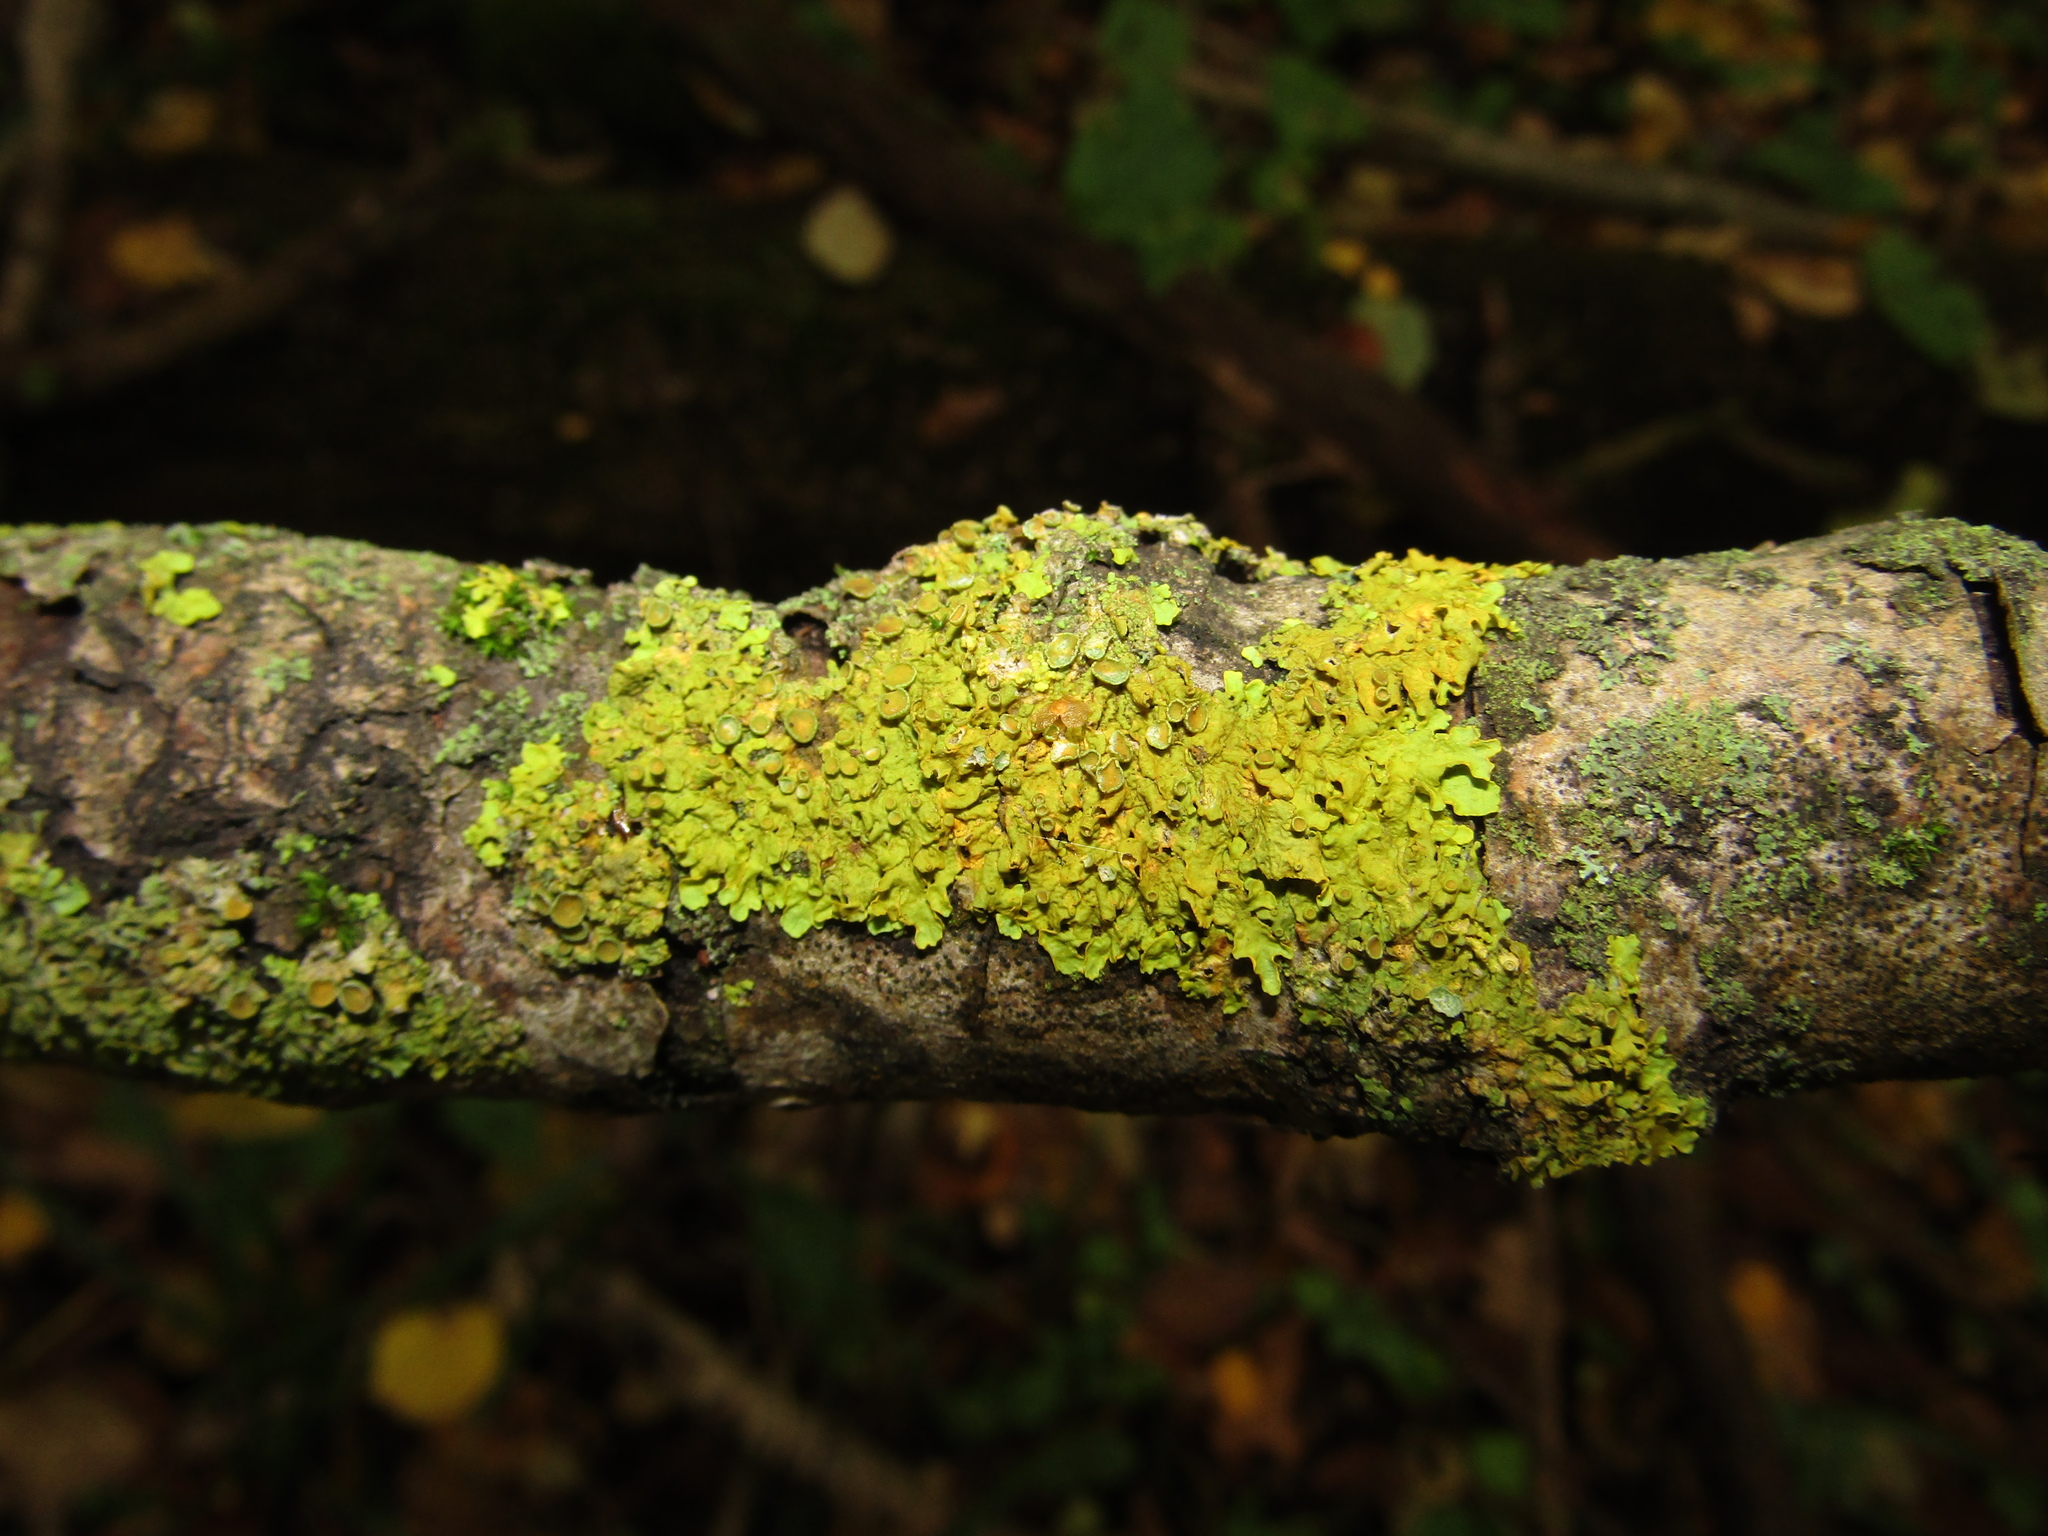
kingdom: Fungi
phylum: Ascomycota
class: Lecanoromycetes
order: Teloschistales
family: Teloschistaceae
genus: Xanthoria
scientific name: Xanthoria parietina
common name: Common orange lichen
